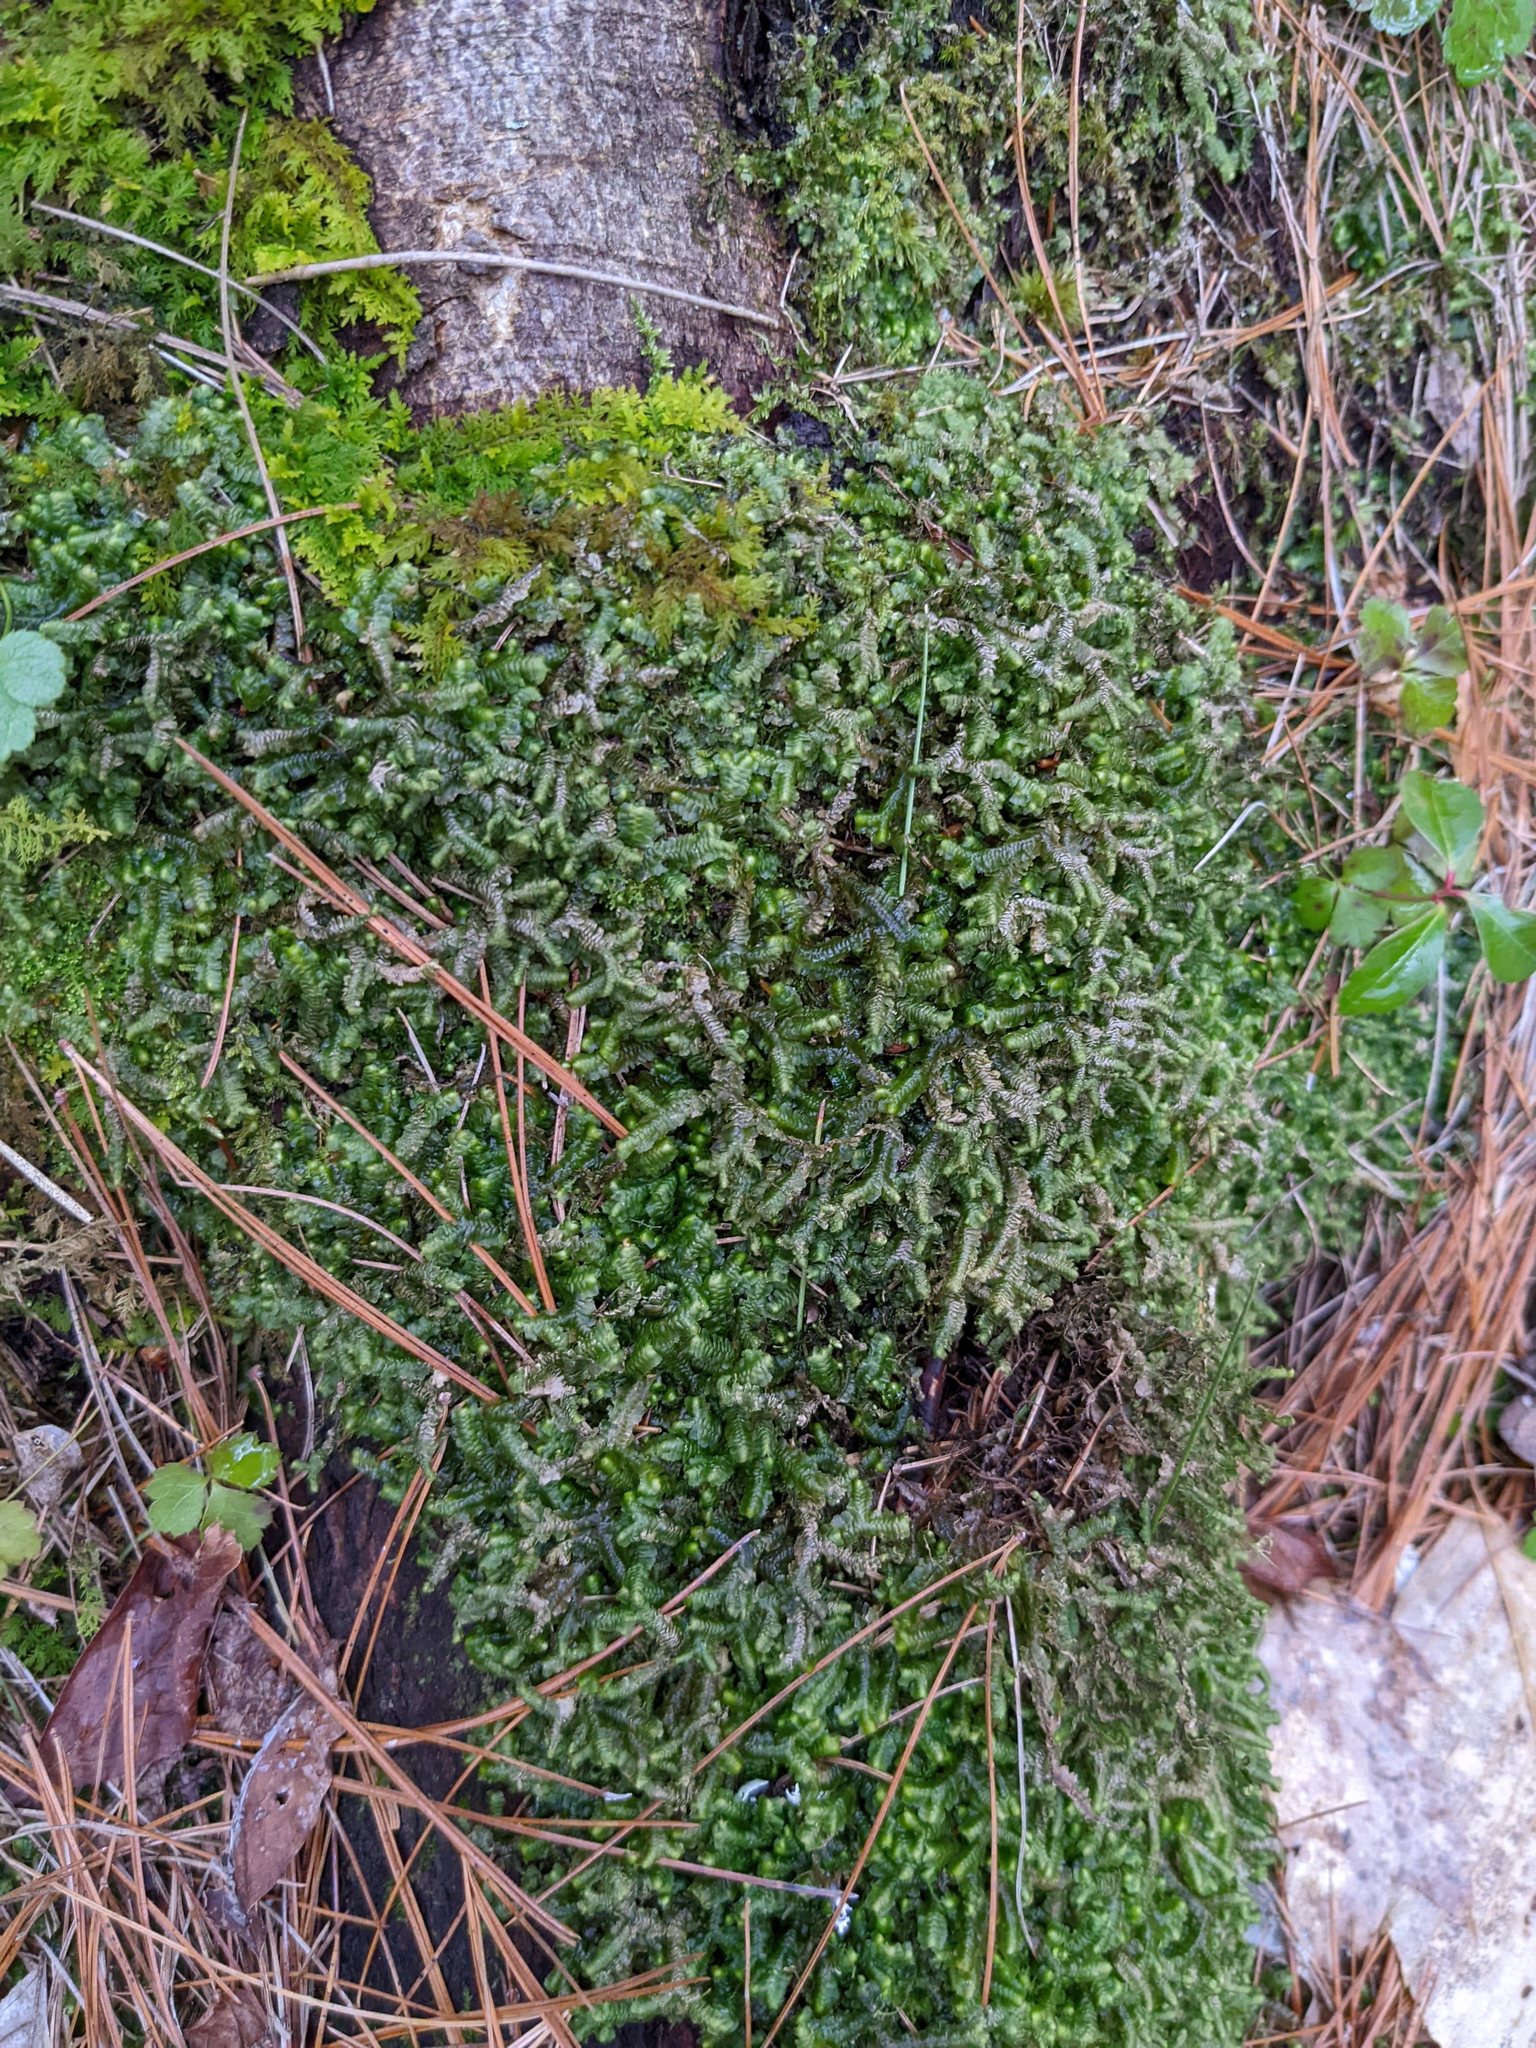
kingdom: Plantae
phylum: Marchantiophyta
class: Jungermanniopsida
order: Jungermanniales
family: Lepidoziaceae
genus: Bazzania
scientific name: Bazzania trilobata
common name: Three-lobed whipwort
